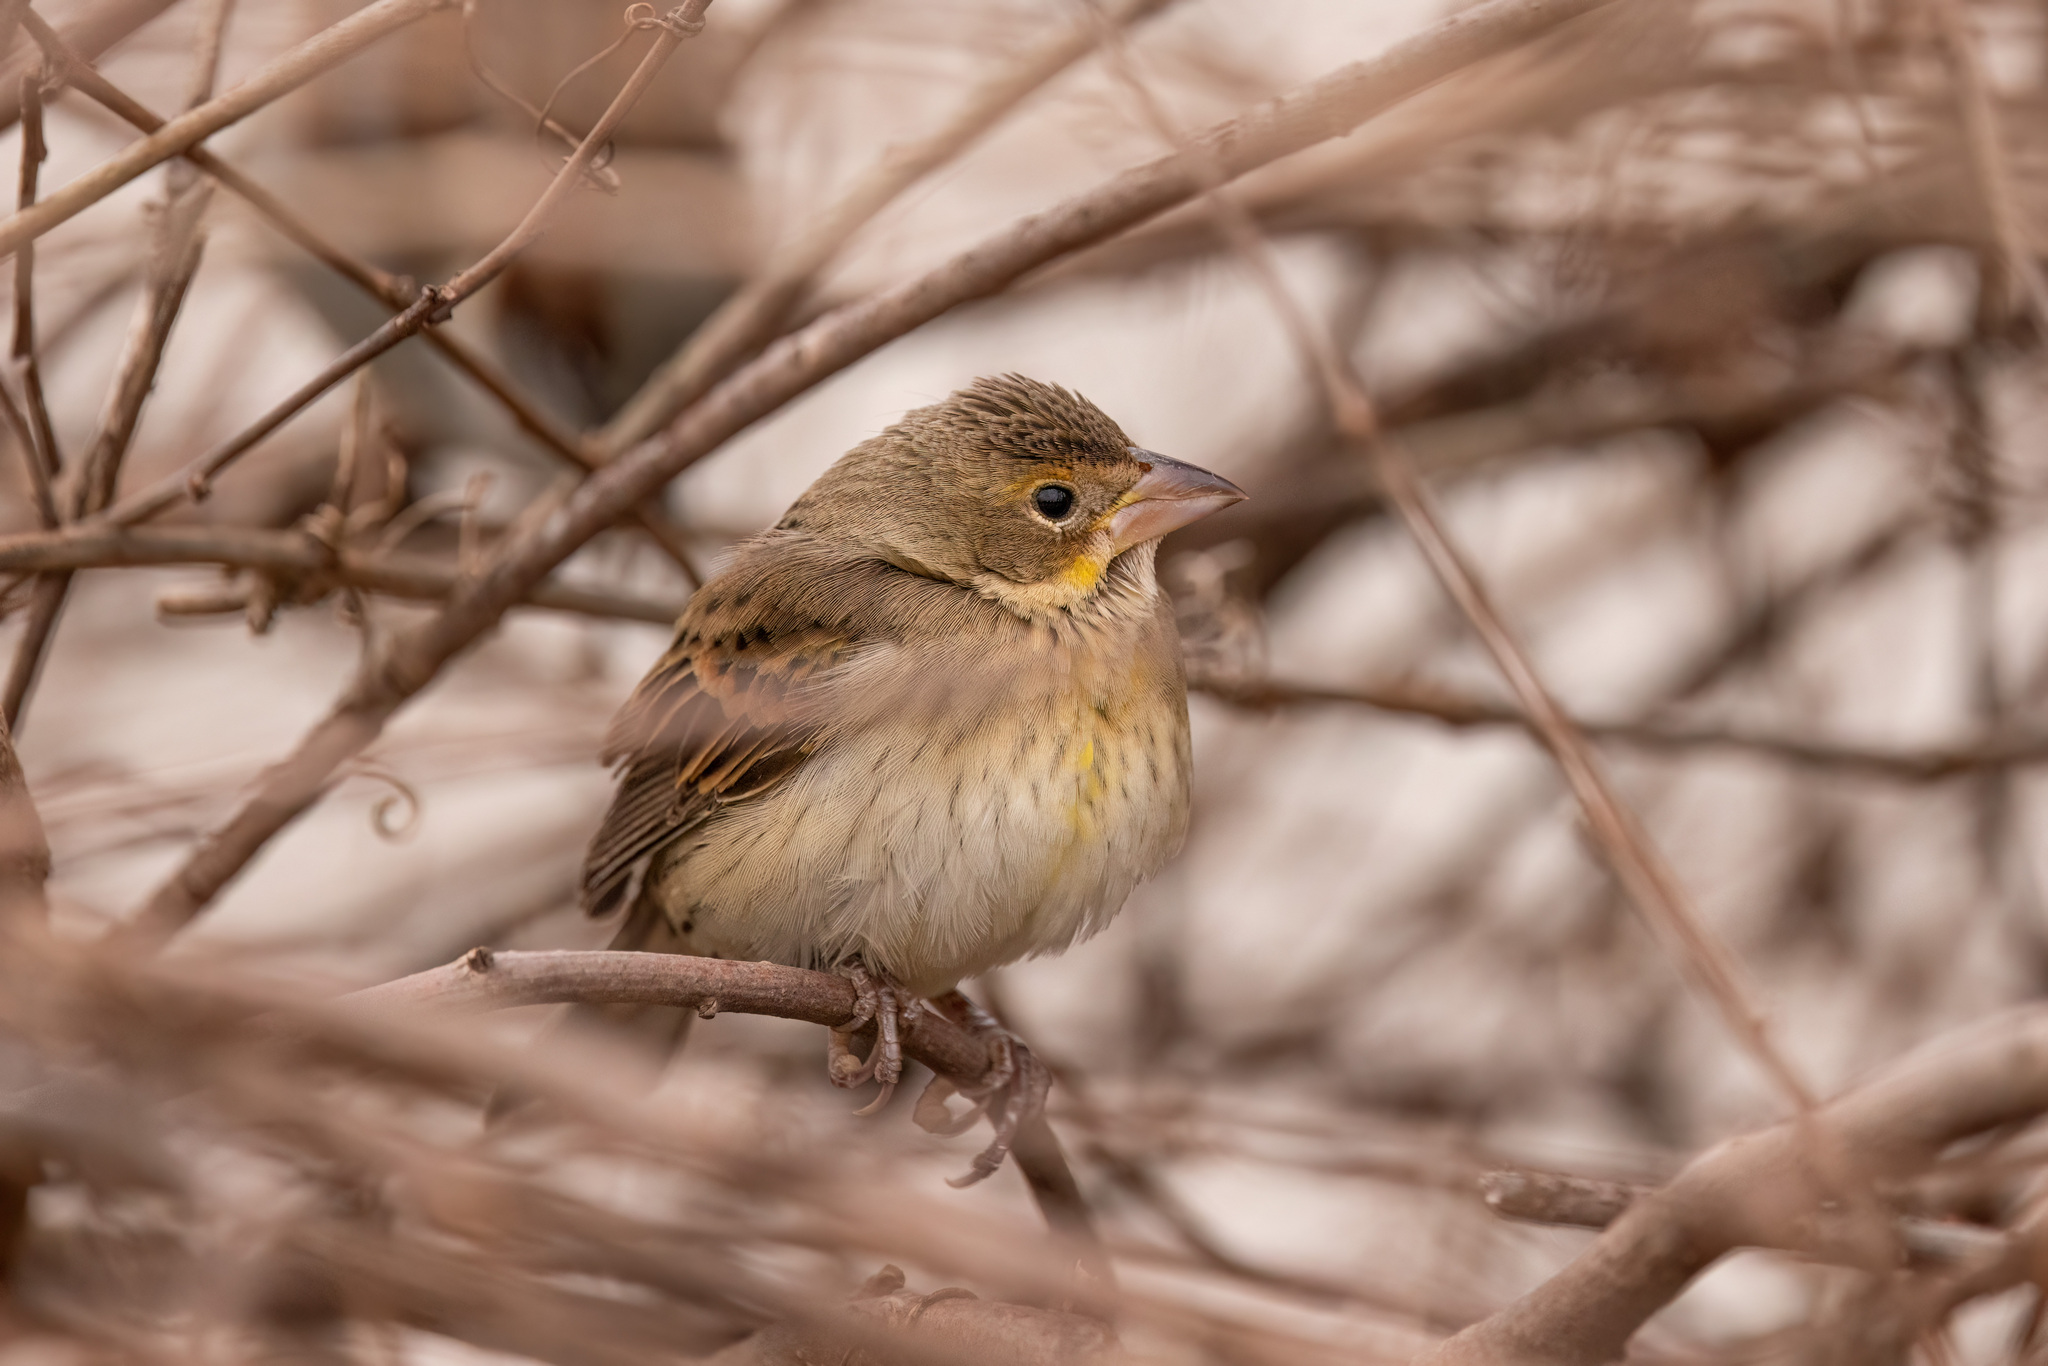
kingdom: Animalia
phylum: Chordata
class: Aves
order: Passeriformes
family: Cardinalidae
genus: Spiza
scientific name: Spiza americana
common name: Dickcissel
